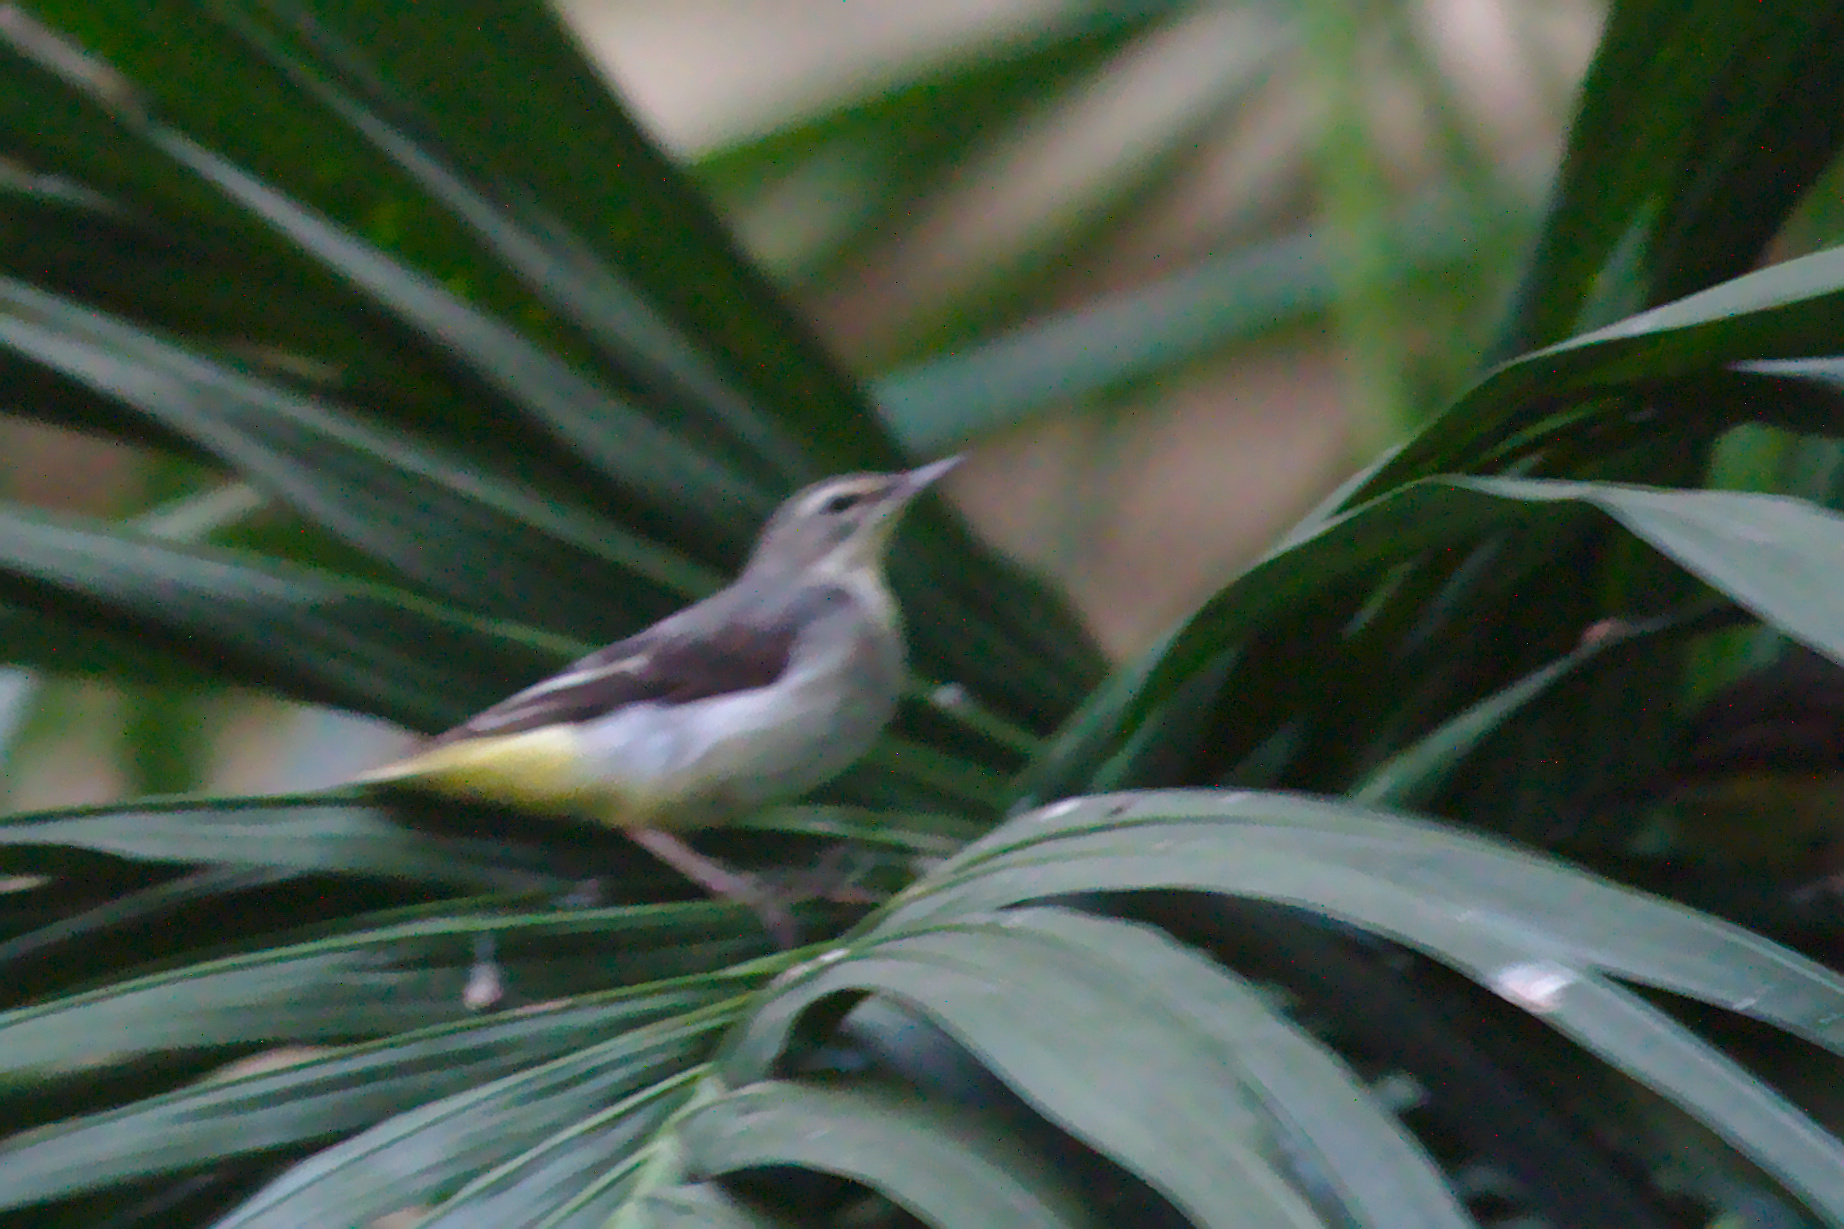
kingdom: Animalia
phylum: Chordata
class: Aves
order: Passeriformes
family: Motacillidae
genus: Motacilla
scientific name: Motacilla cinerea
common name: Grey wagtail
